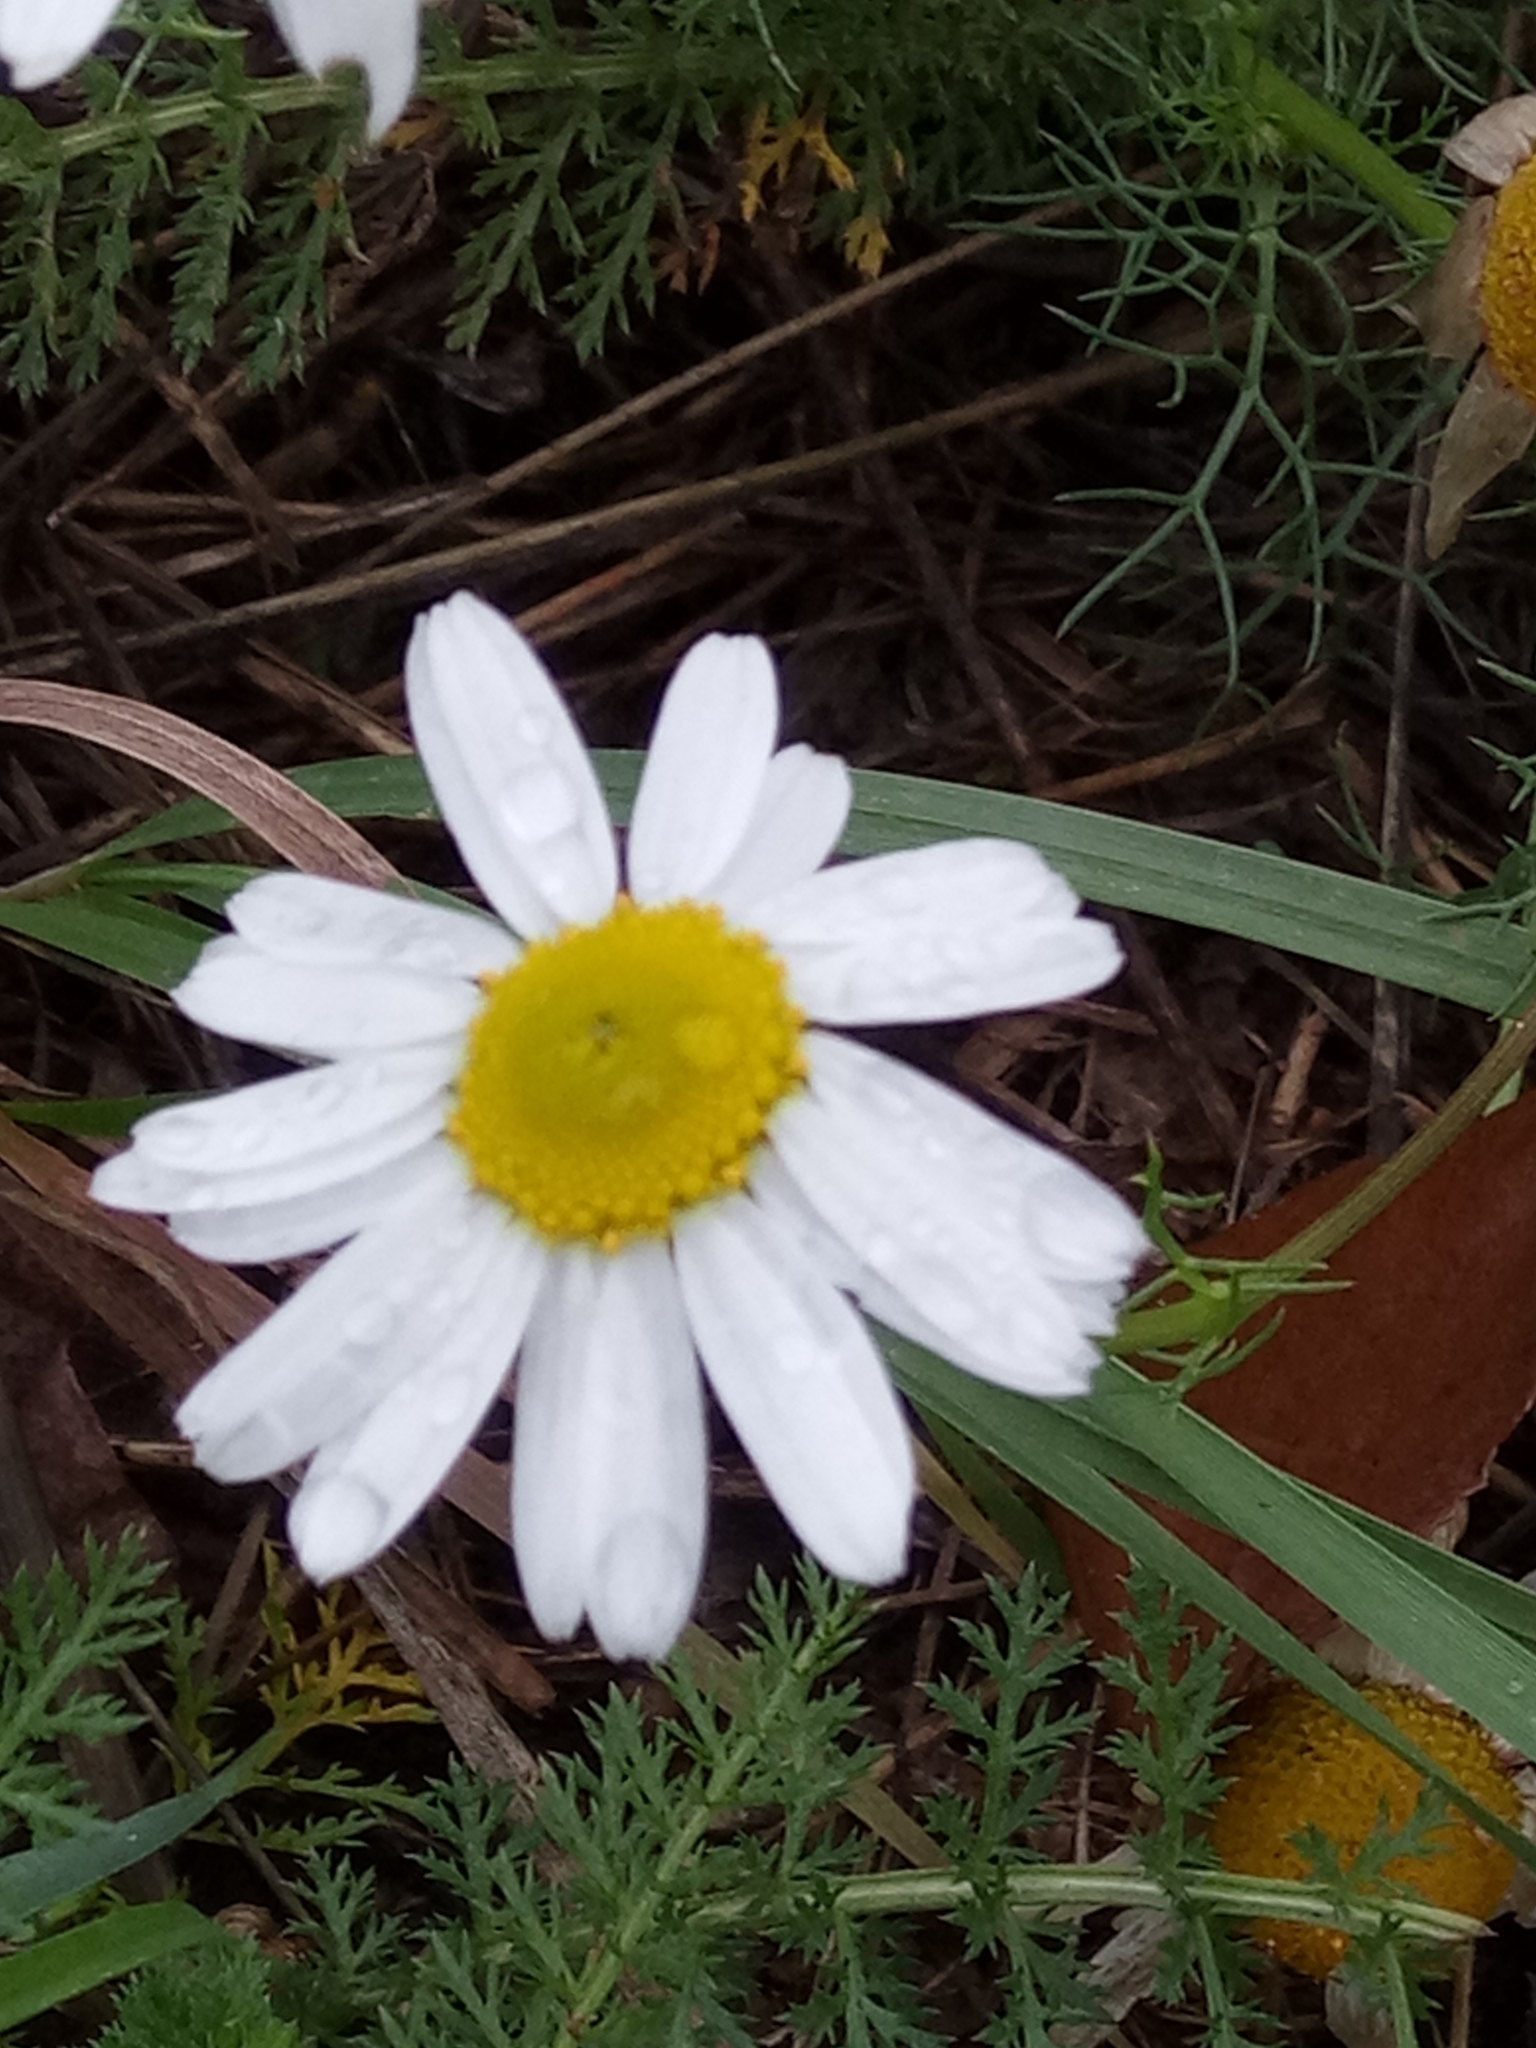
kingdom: Plantae
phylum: Tracheophyta
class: Magnoliopsida
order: Asterales
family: Asteraceae
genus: Tripleurospermum
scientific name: Tripleurospermum inodorum
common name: Scentless mayweed
